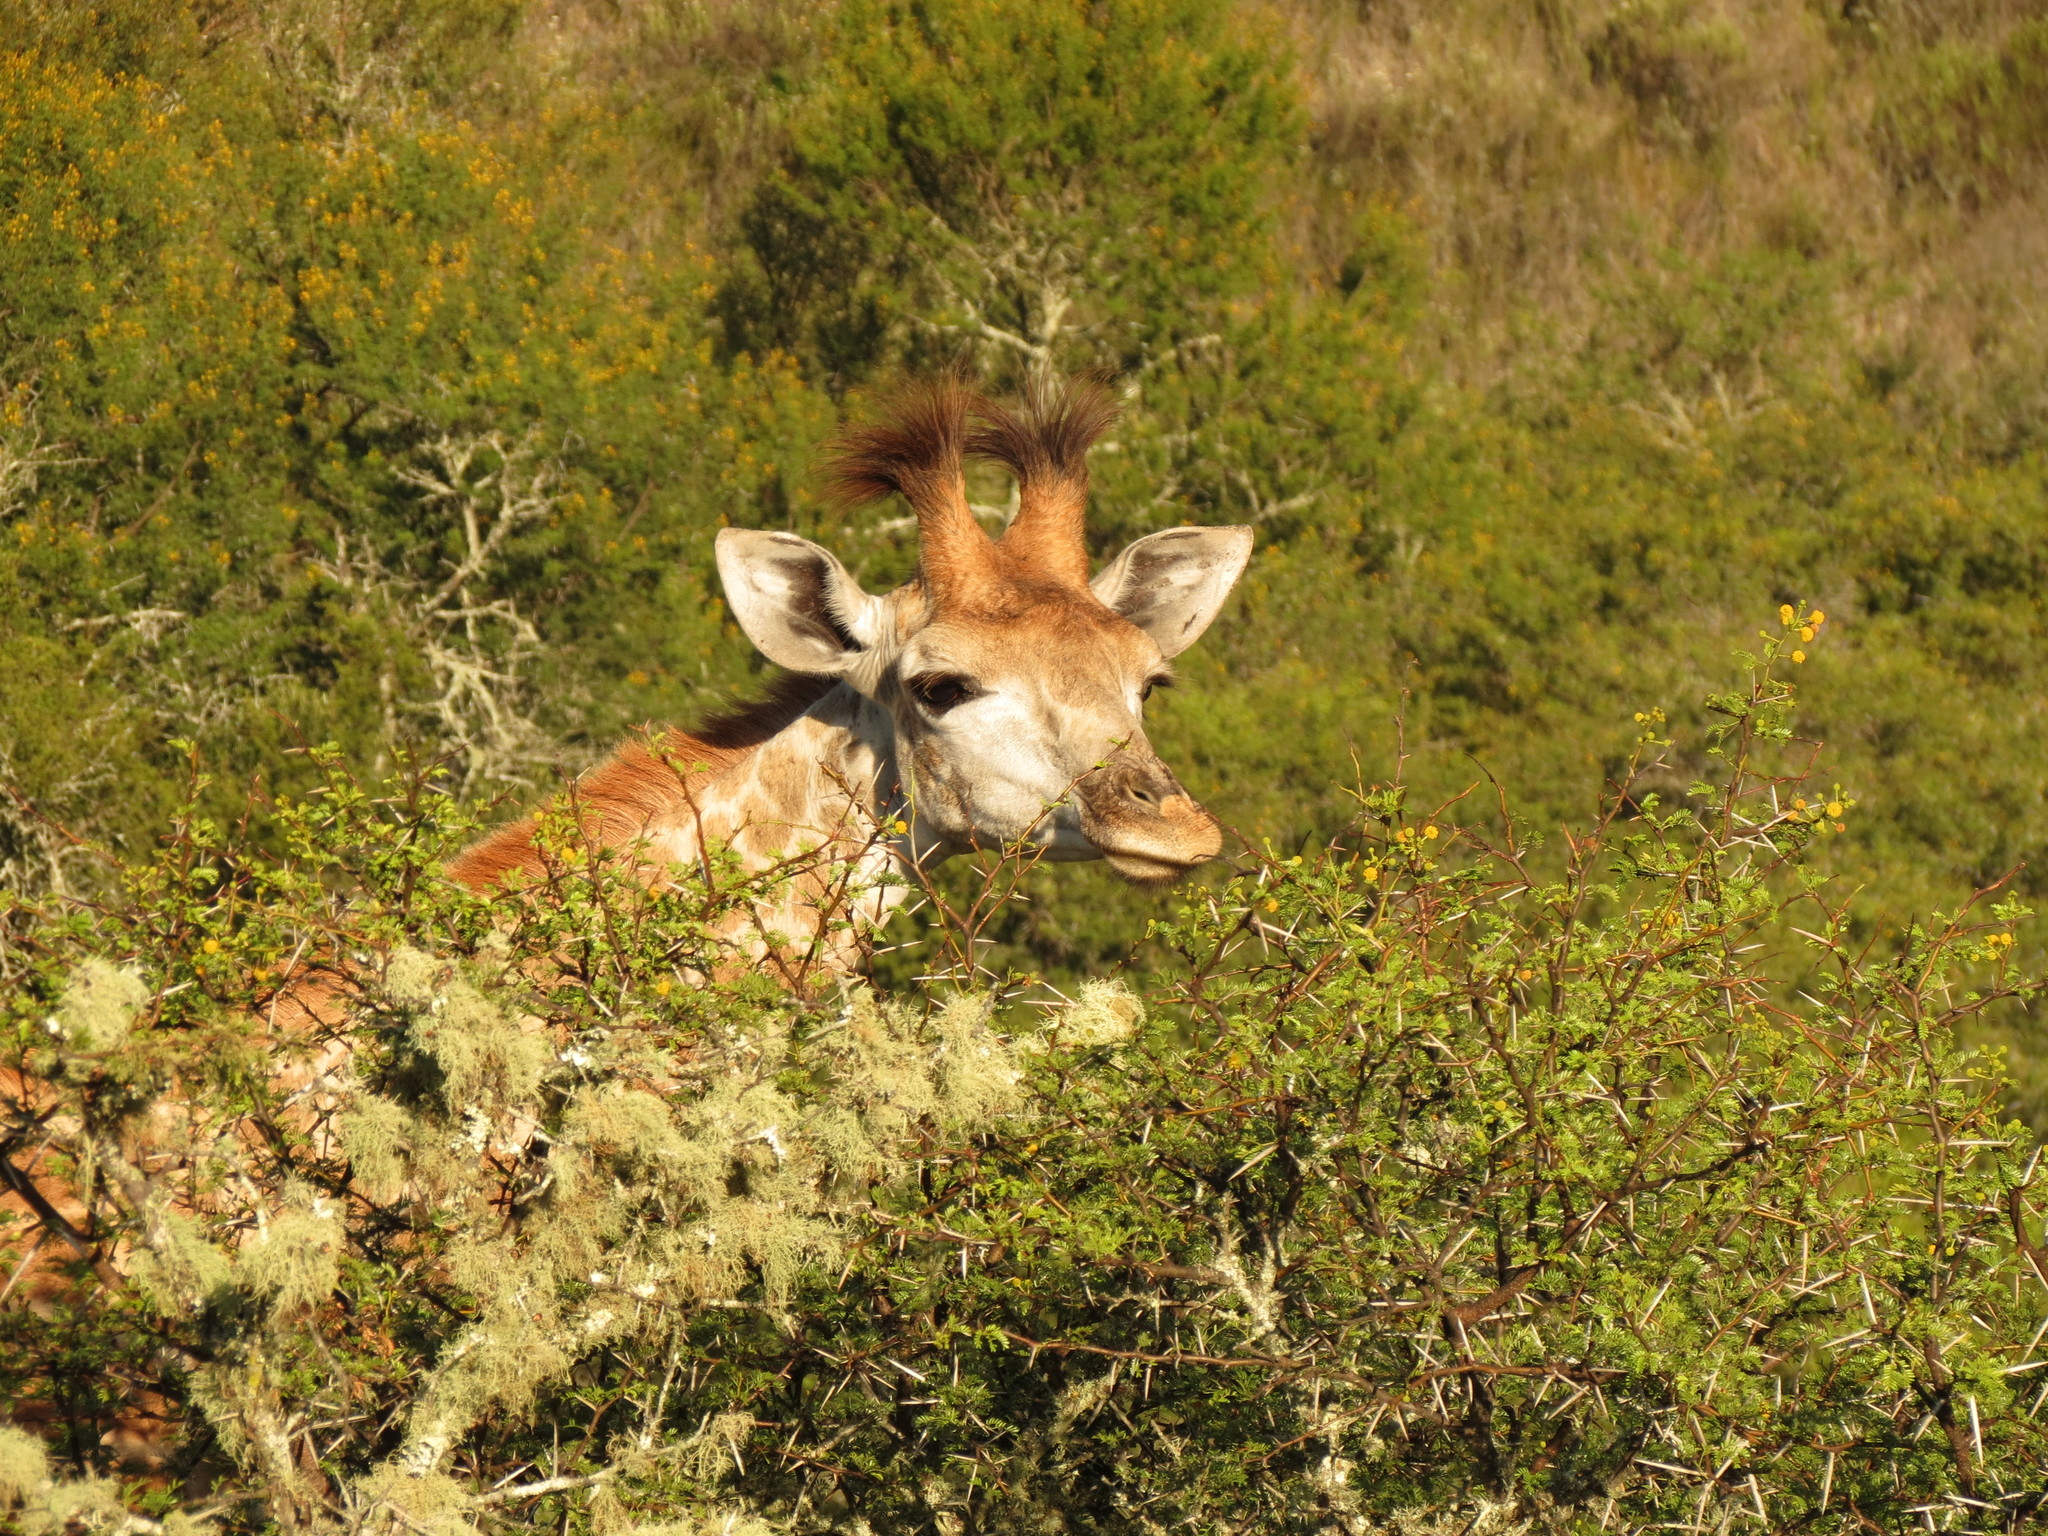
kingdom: Animalia
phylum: Chordata
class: Mammalia
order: Artiodactyla
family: Giraffidae
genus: Giraffa
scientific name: Giraffa giraffa
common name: Southern giraffe
